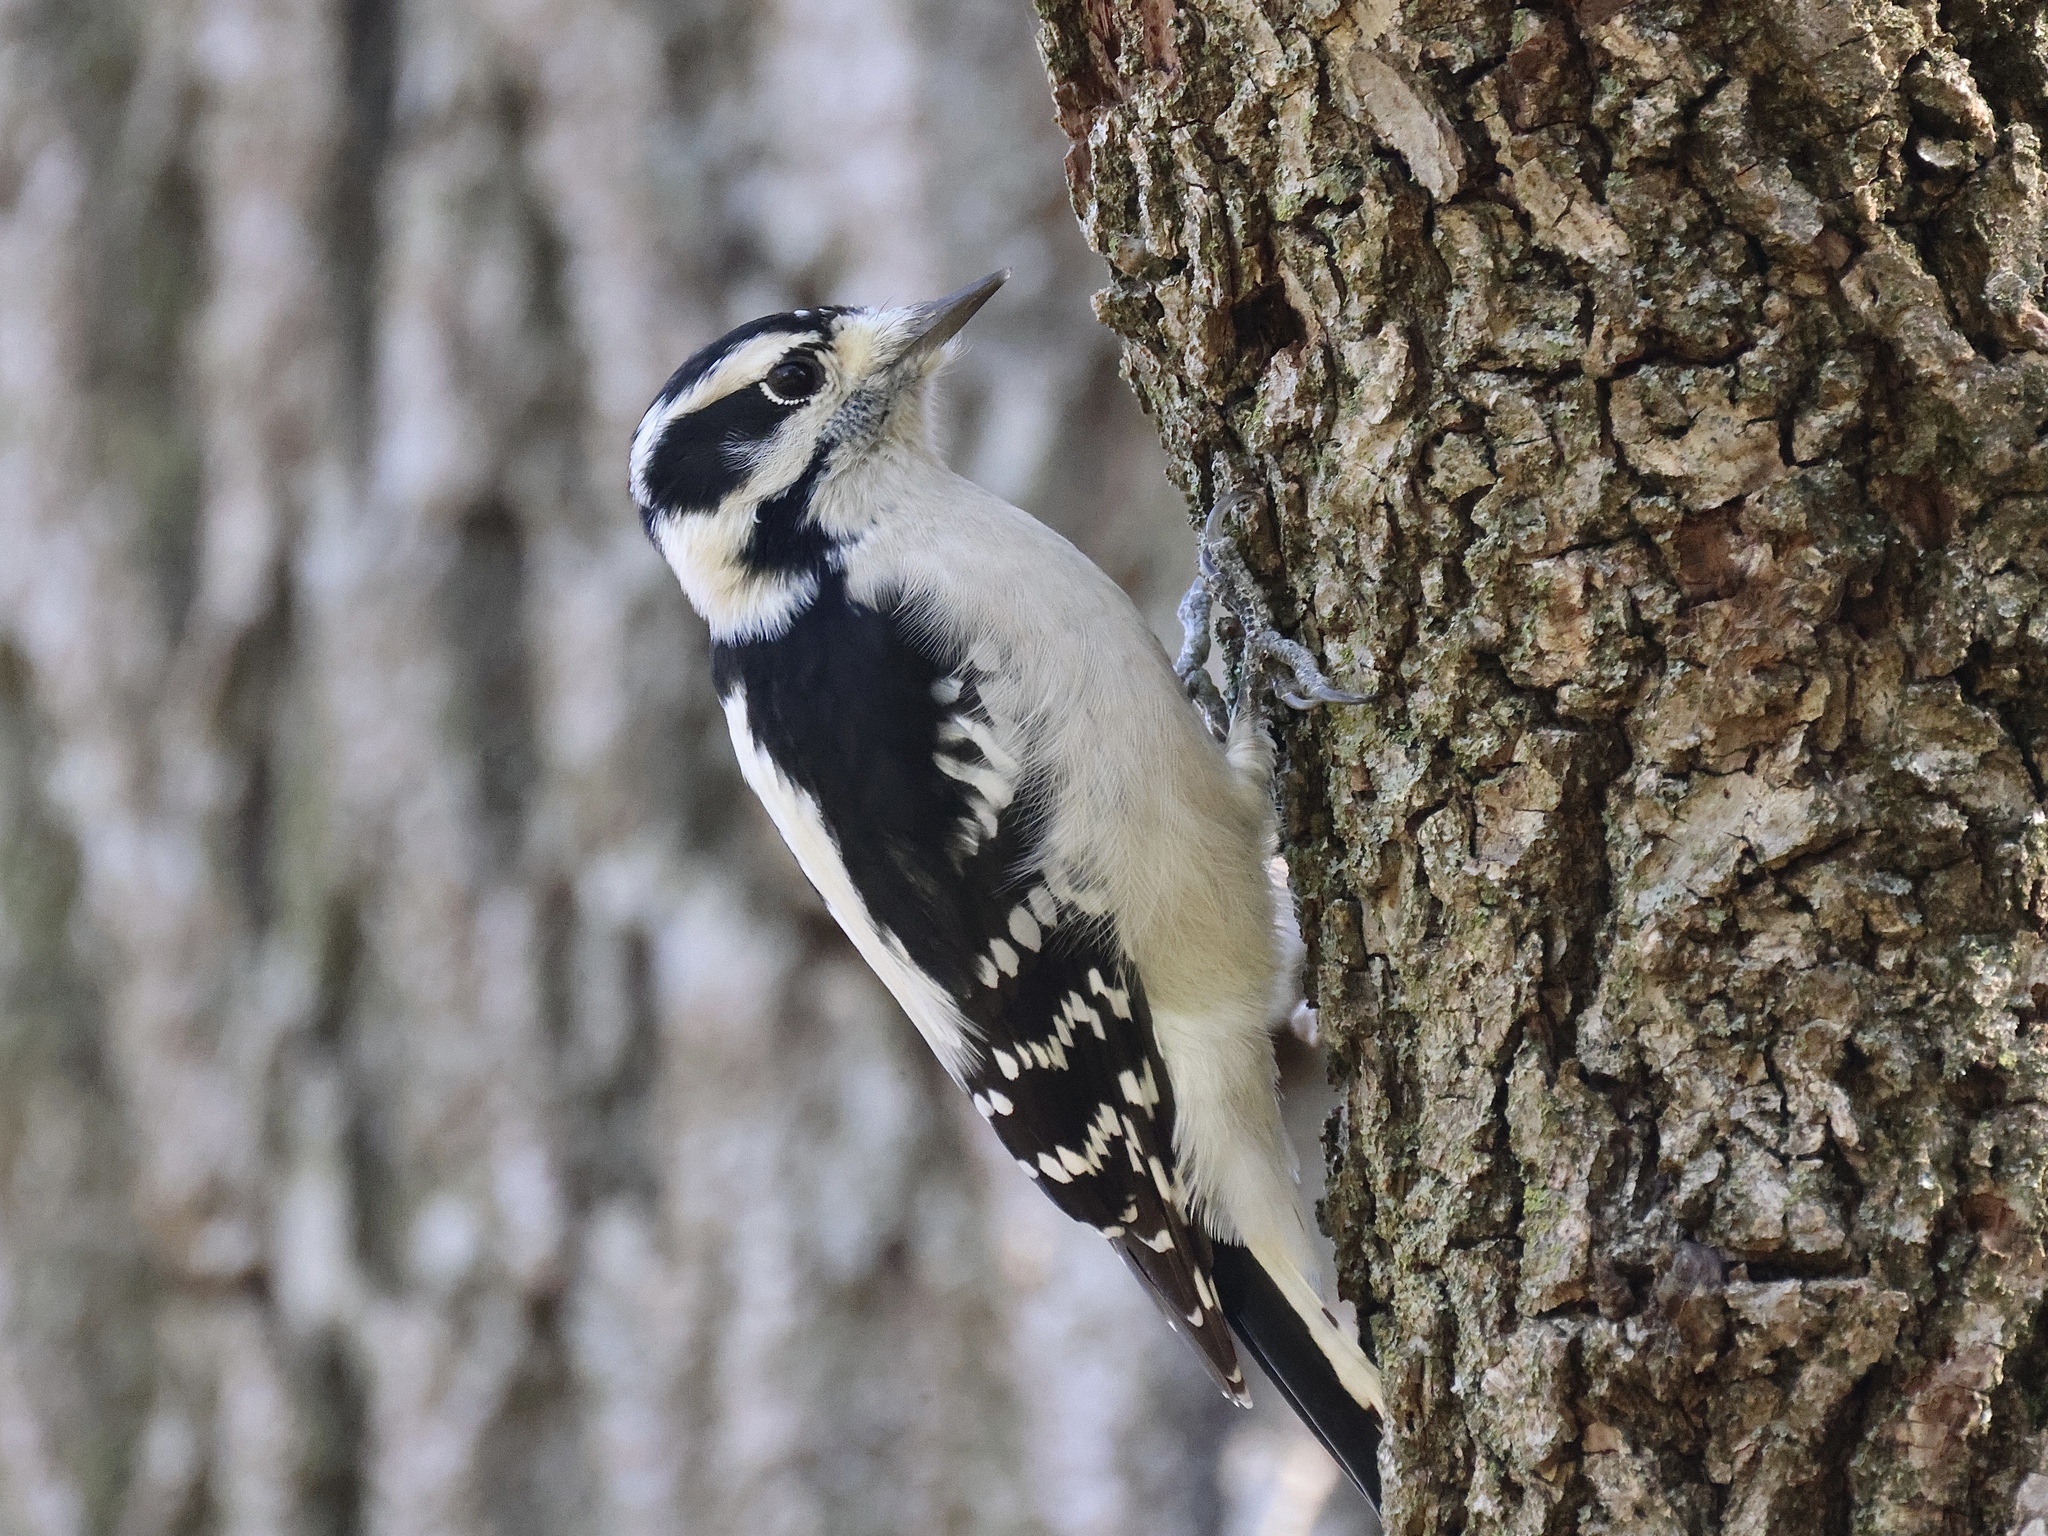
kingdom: Animalia
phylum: Chordata
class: Aves
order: Piciformes
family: Picidae
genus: Dryobates
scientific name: Dryobates pubescens
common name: Downy woodpecker
